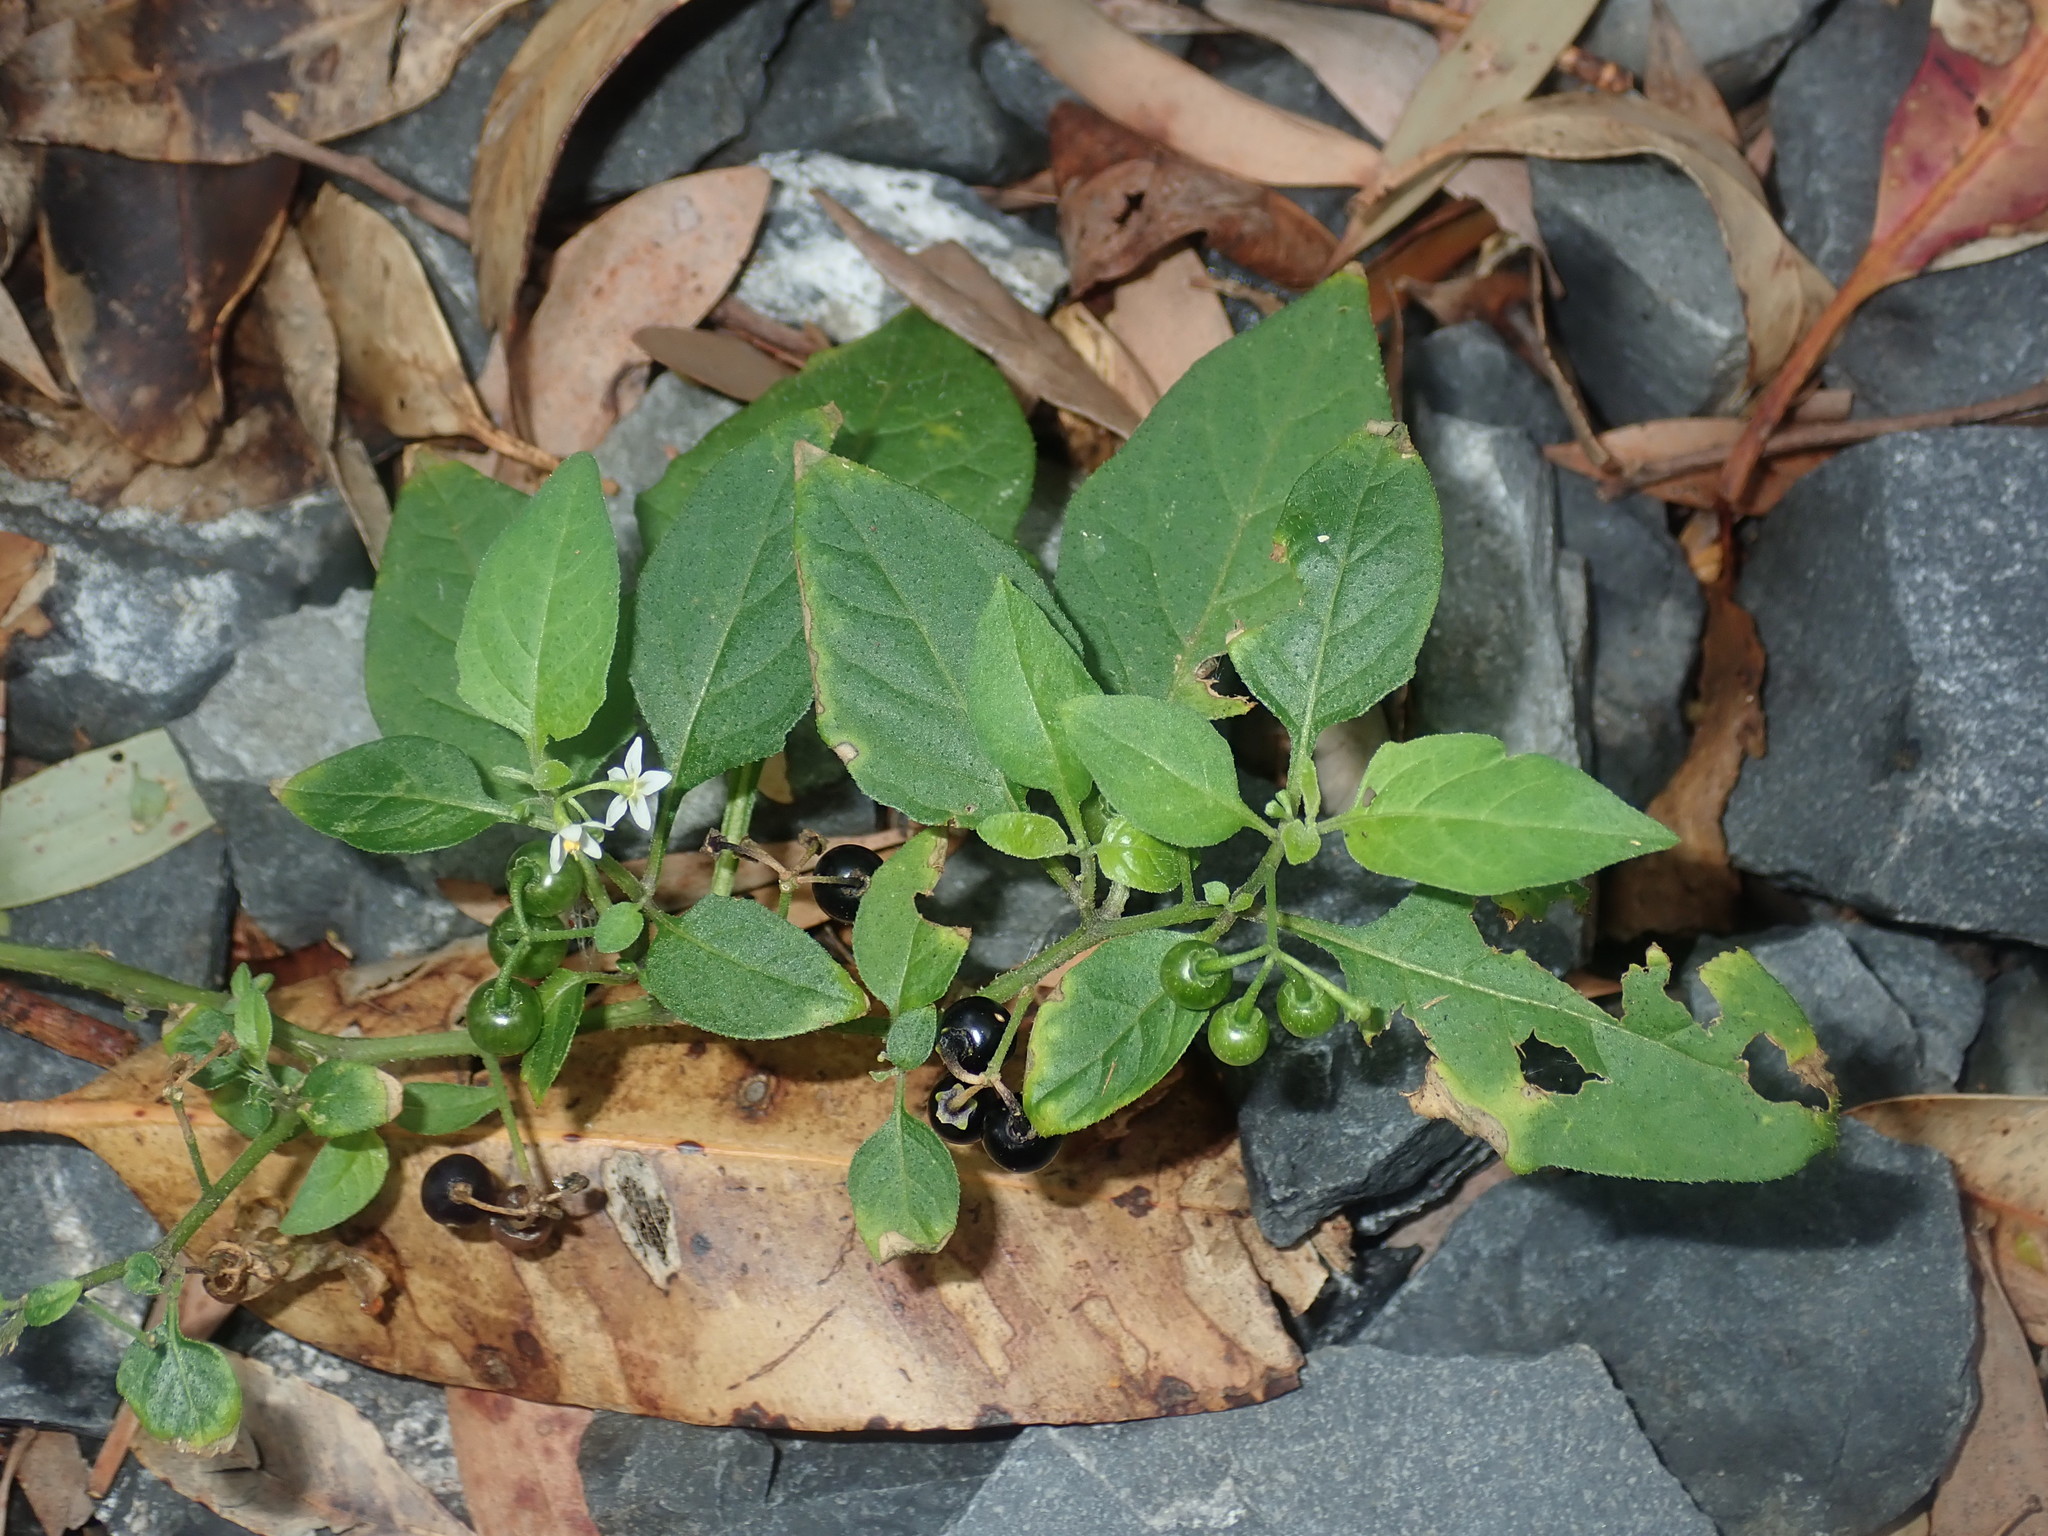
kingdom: Plantae
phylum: Tracheophyta
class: Magnoliopsida
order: Solanales
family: Solanaceae
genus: Solanum
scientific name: Solanum americanum
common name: American black nightshade
